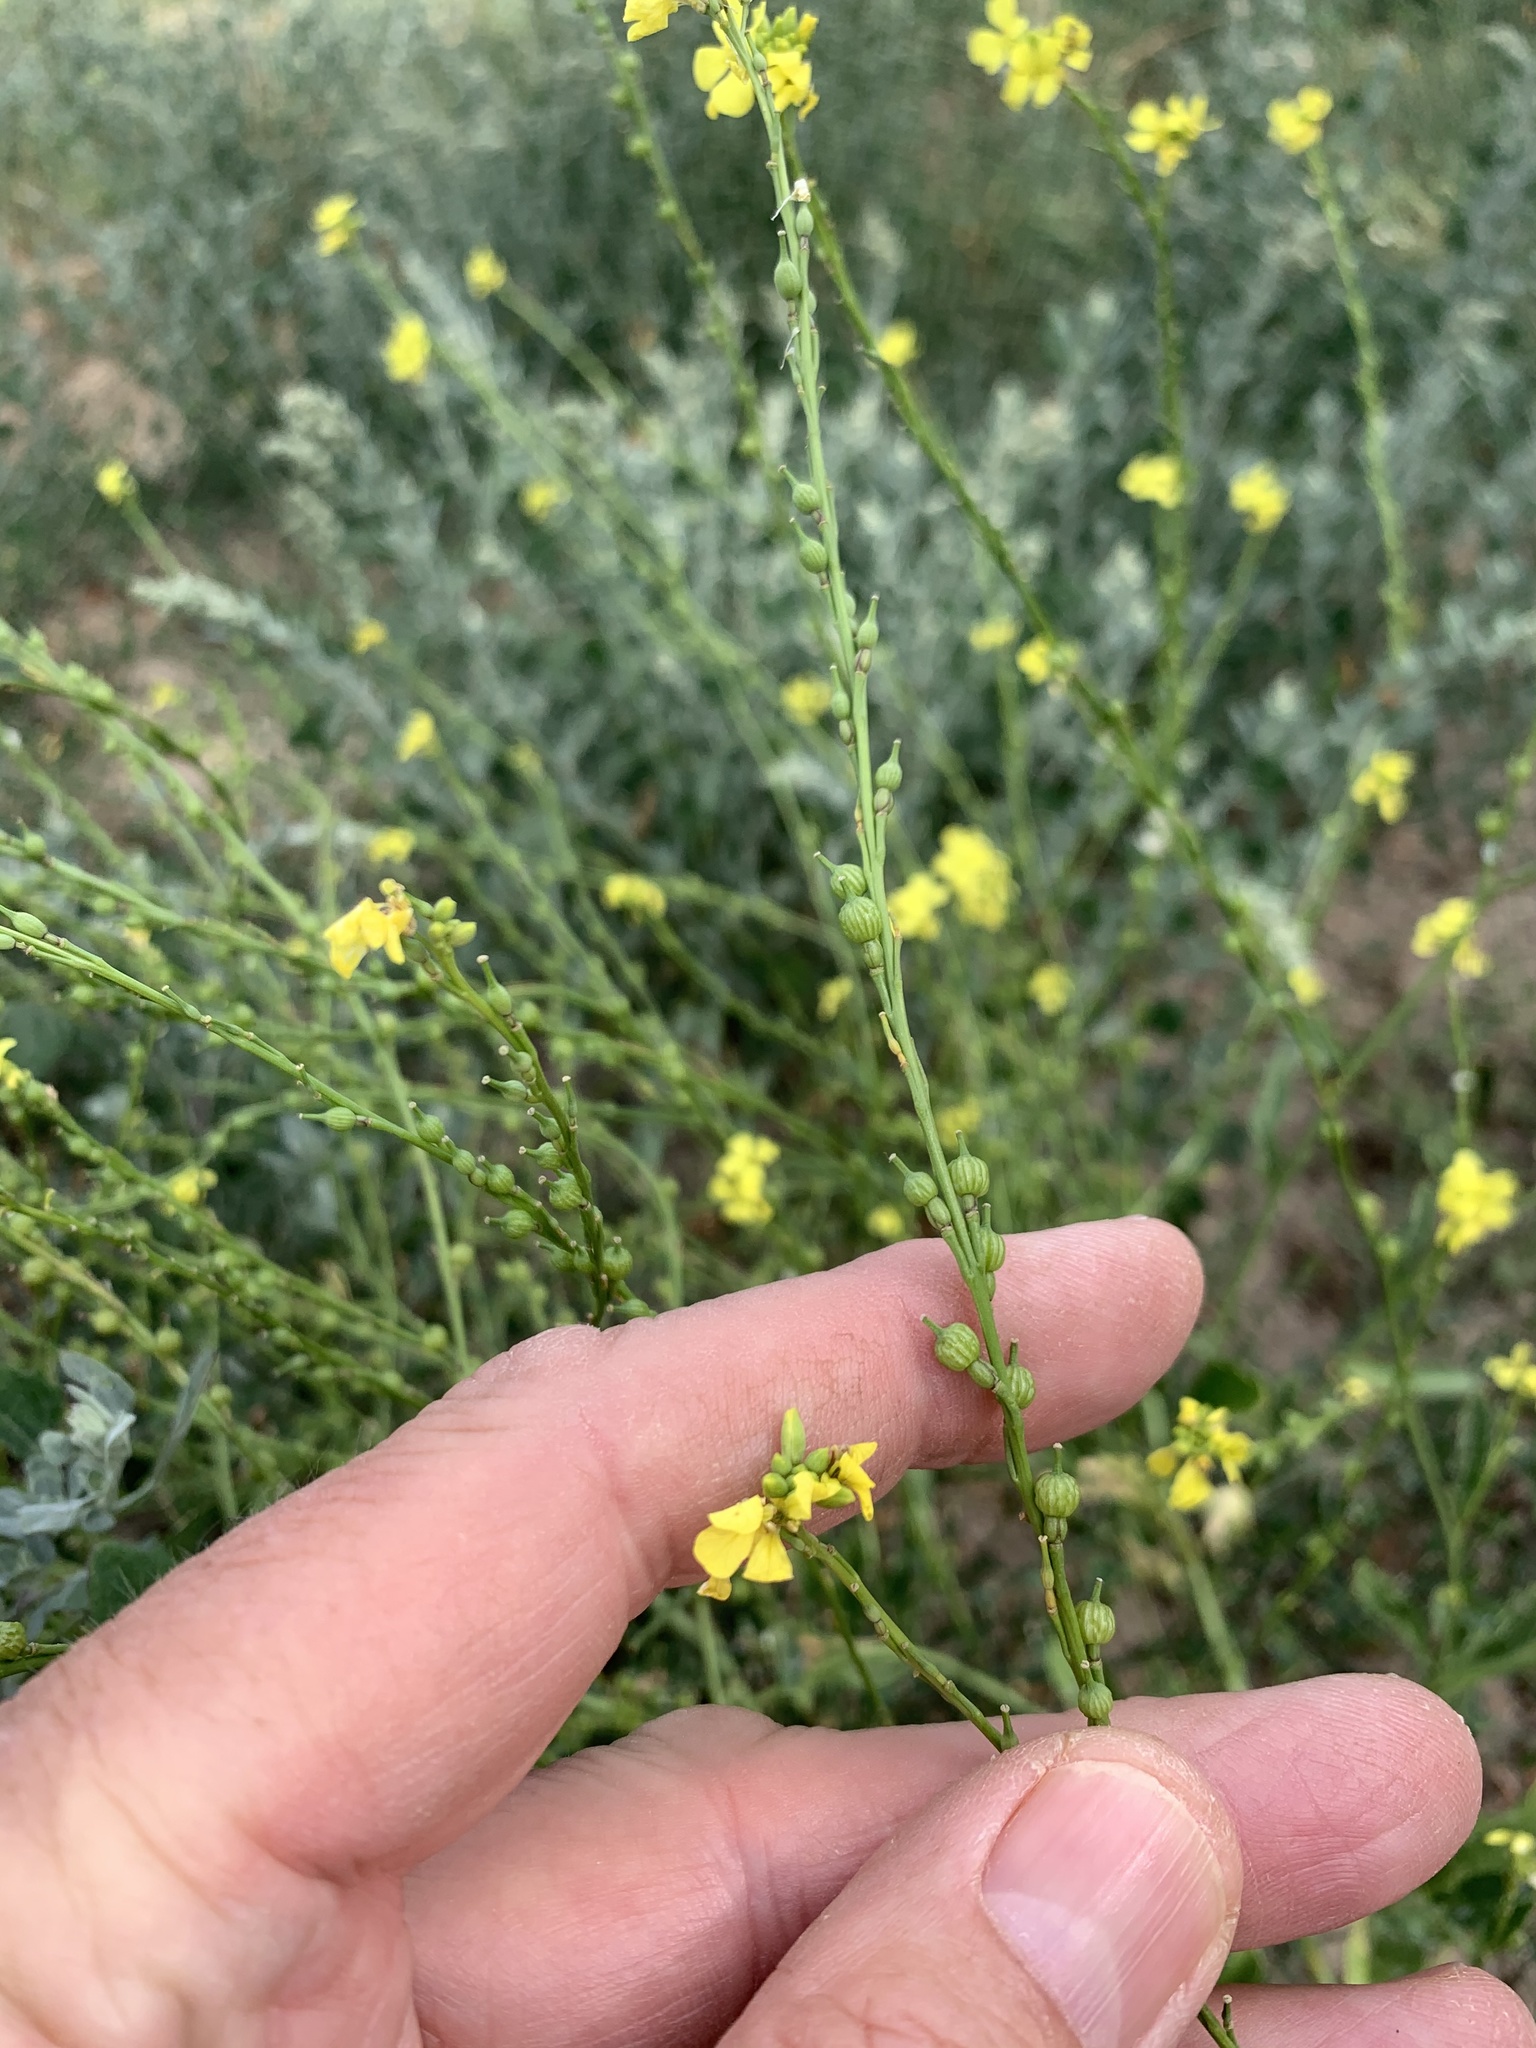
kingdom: Plantae
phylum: Tracheophyta
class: Magnoliopsida
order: Brassicales
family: Brassicaceae
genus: Rapistrum
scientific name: Rapistrum rugosum
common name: Annual bastardcabbage
